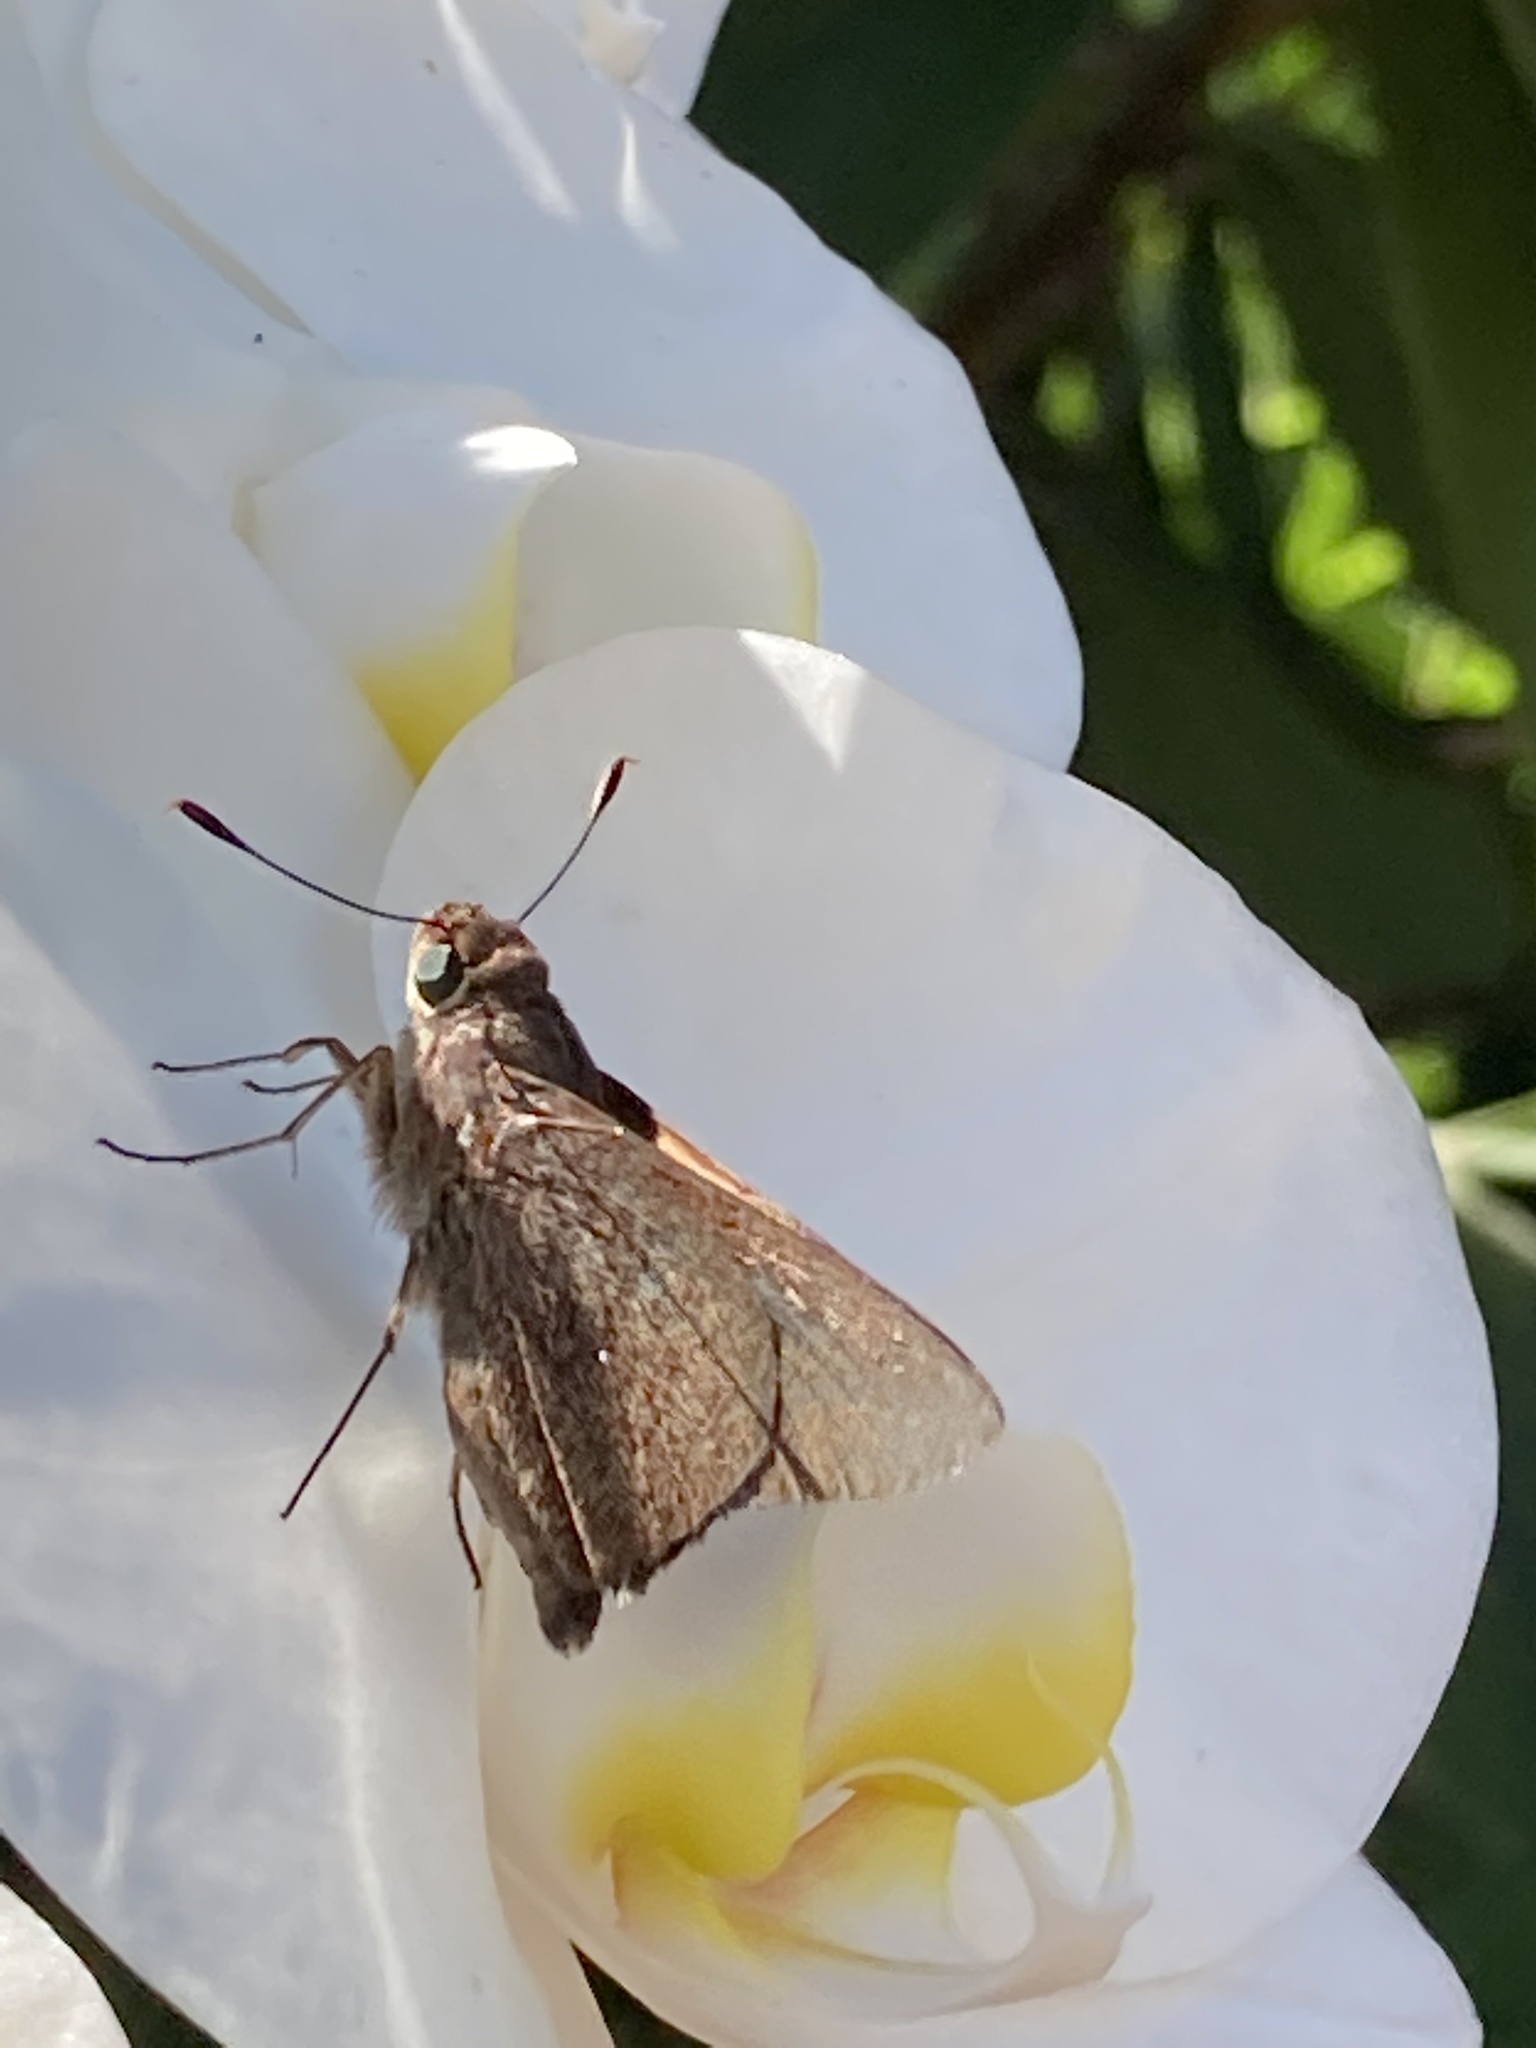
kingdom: Animalia
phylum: Arthropoda
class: Insecta
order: Lepidoptera
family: Hesperiidae
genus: Asbolis
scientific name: Asbolis capucinus
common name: Monk skipper
